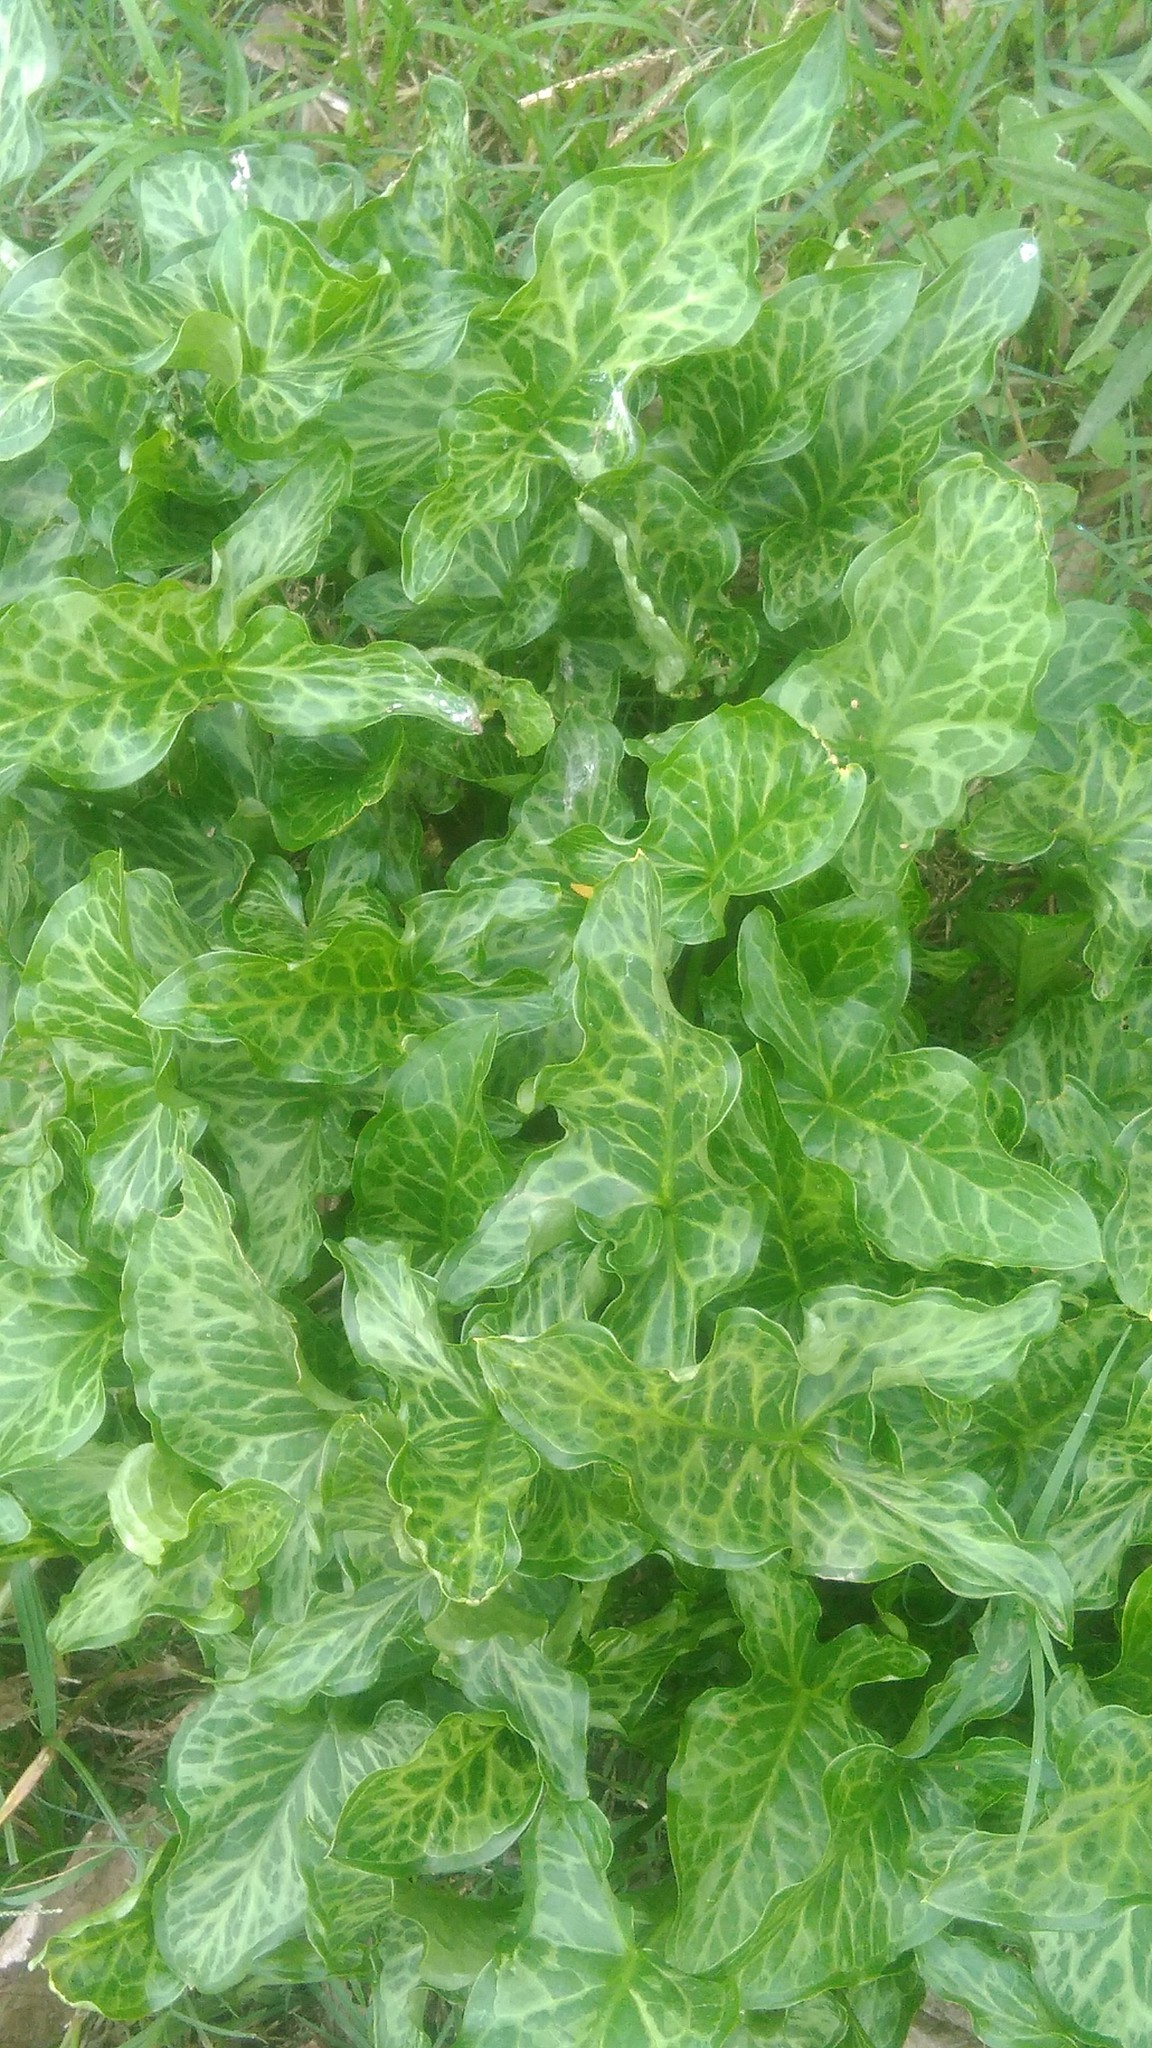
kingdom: Plantae
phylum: Tracheophyta
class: Liliopsida
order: Alismatales
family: Araceae
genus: Arum
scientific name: Arum italicum
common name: Italian lords-and-ladies
